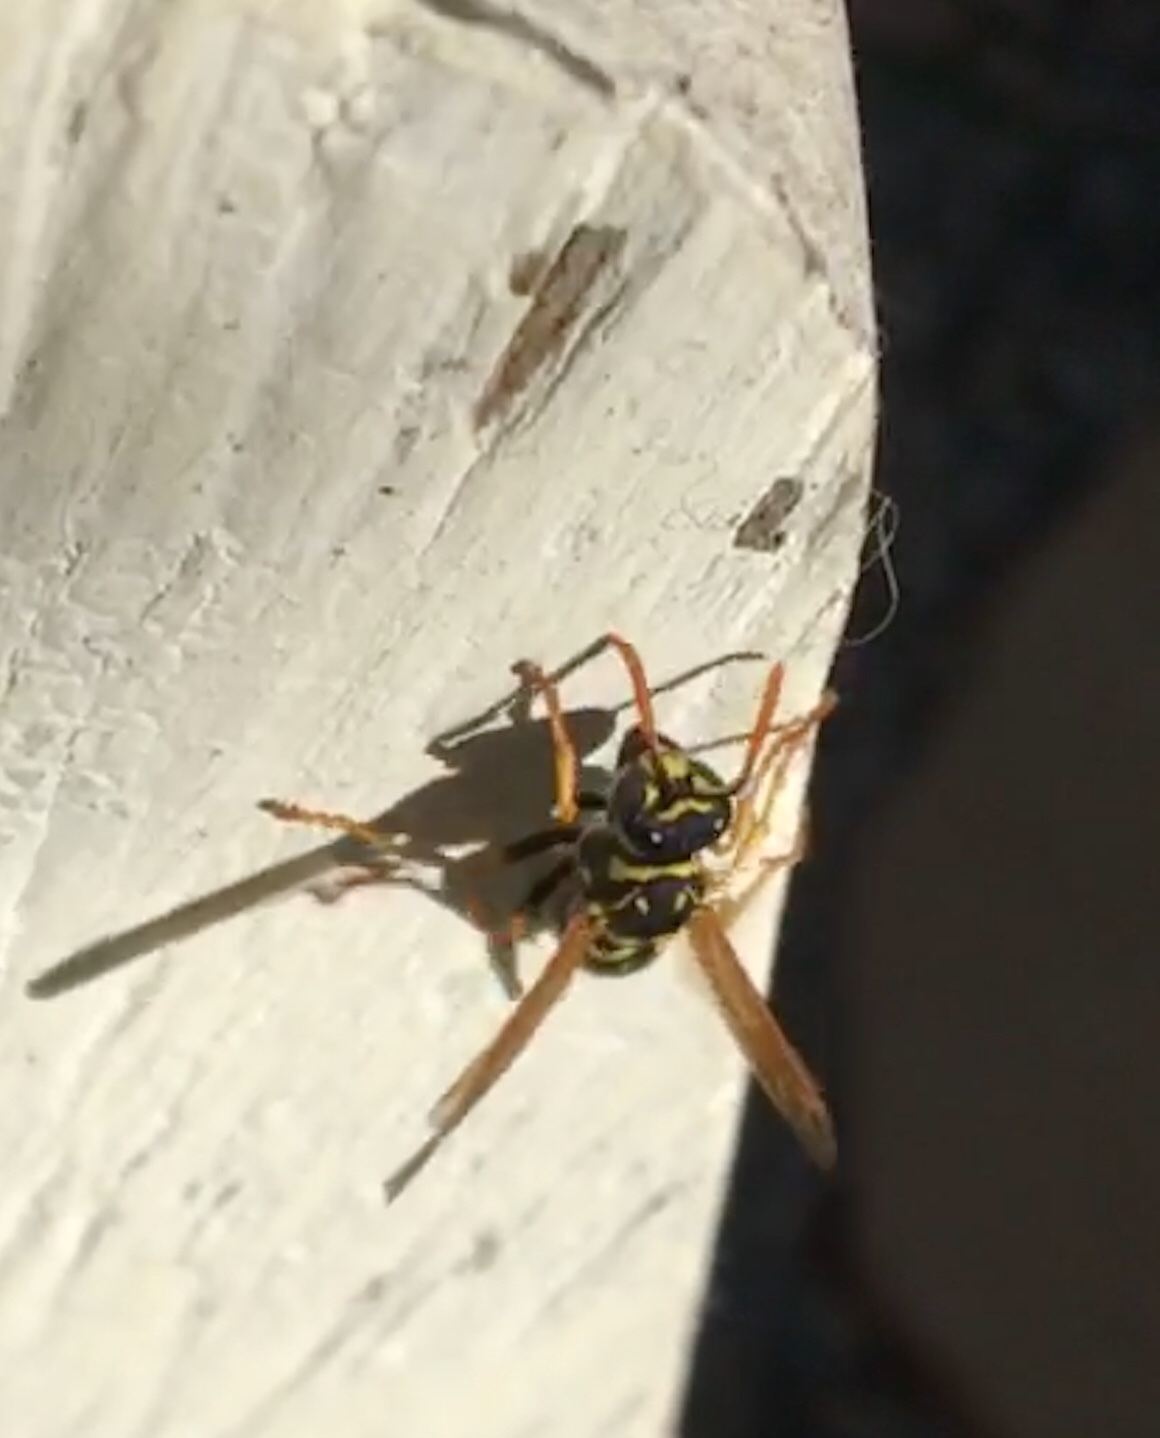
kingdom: Animalia
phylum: Arthropoda
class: Insecta
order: Hymenoptera
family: Eumenidae
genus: Polistes
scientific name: Polistes dominula
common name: Paper wasp
